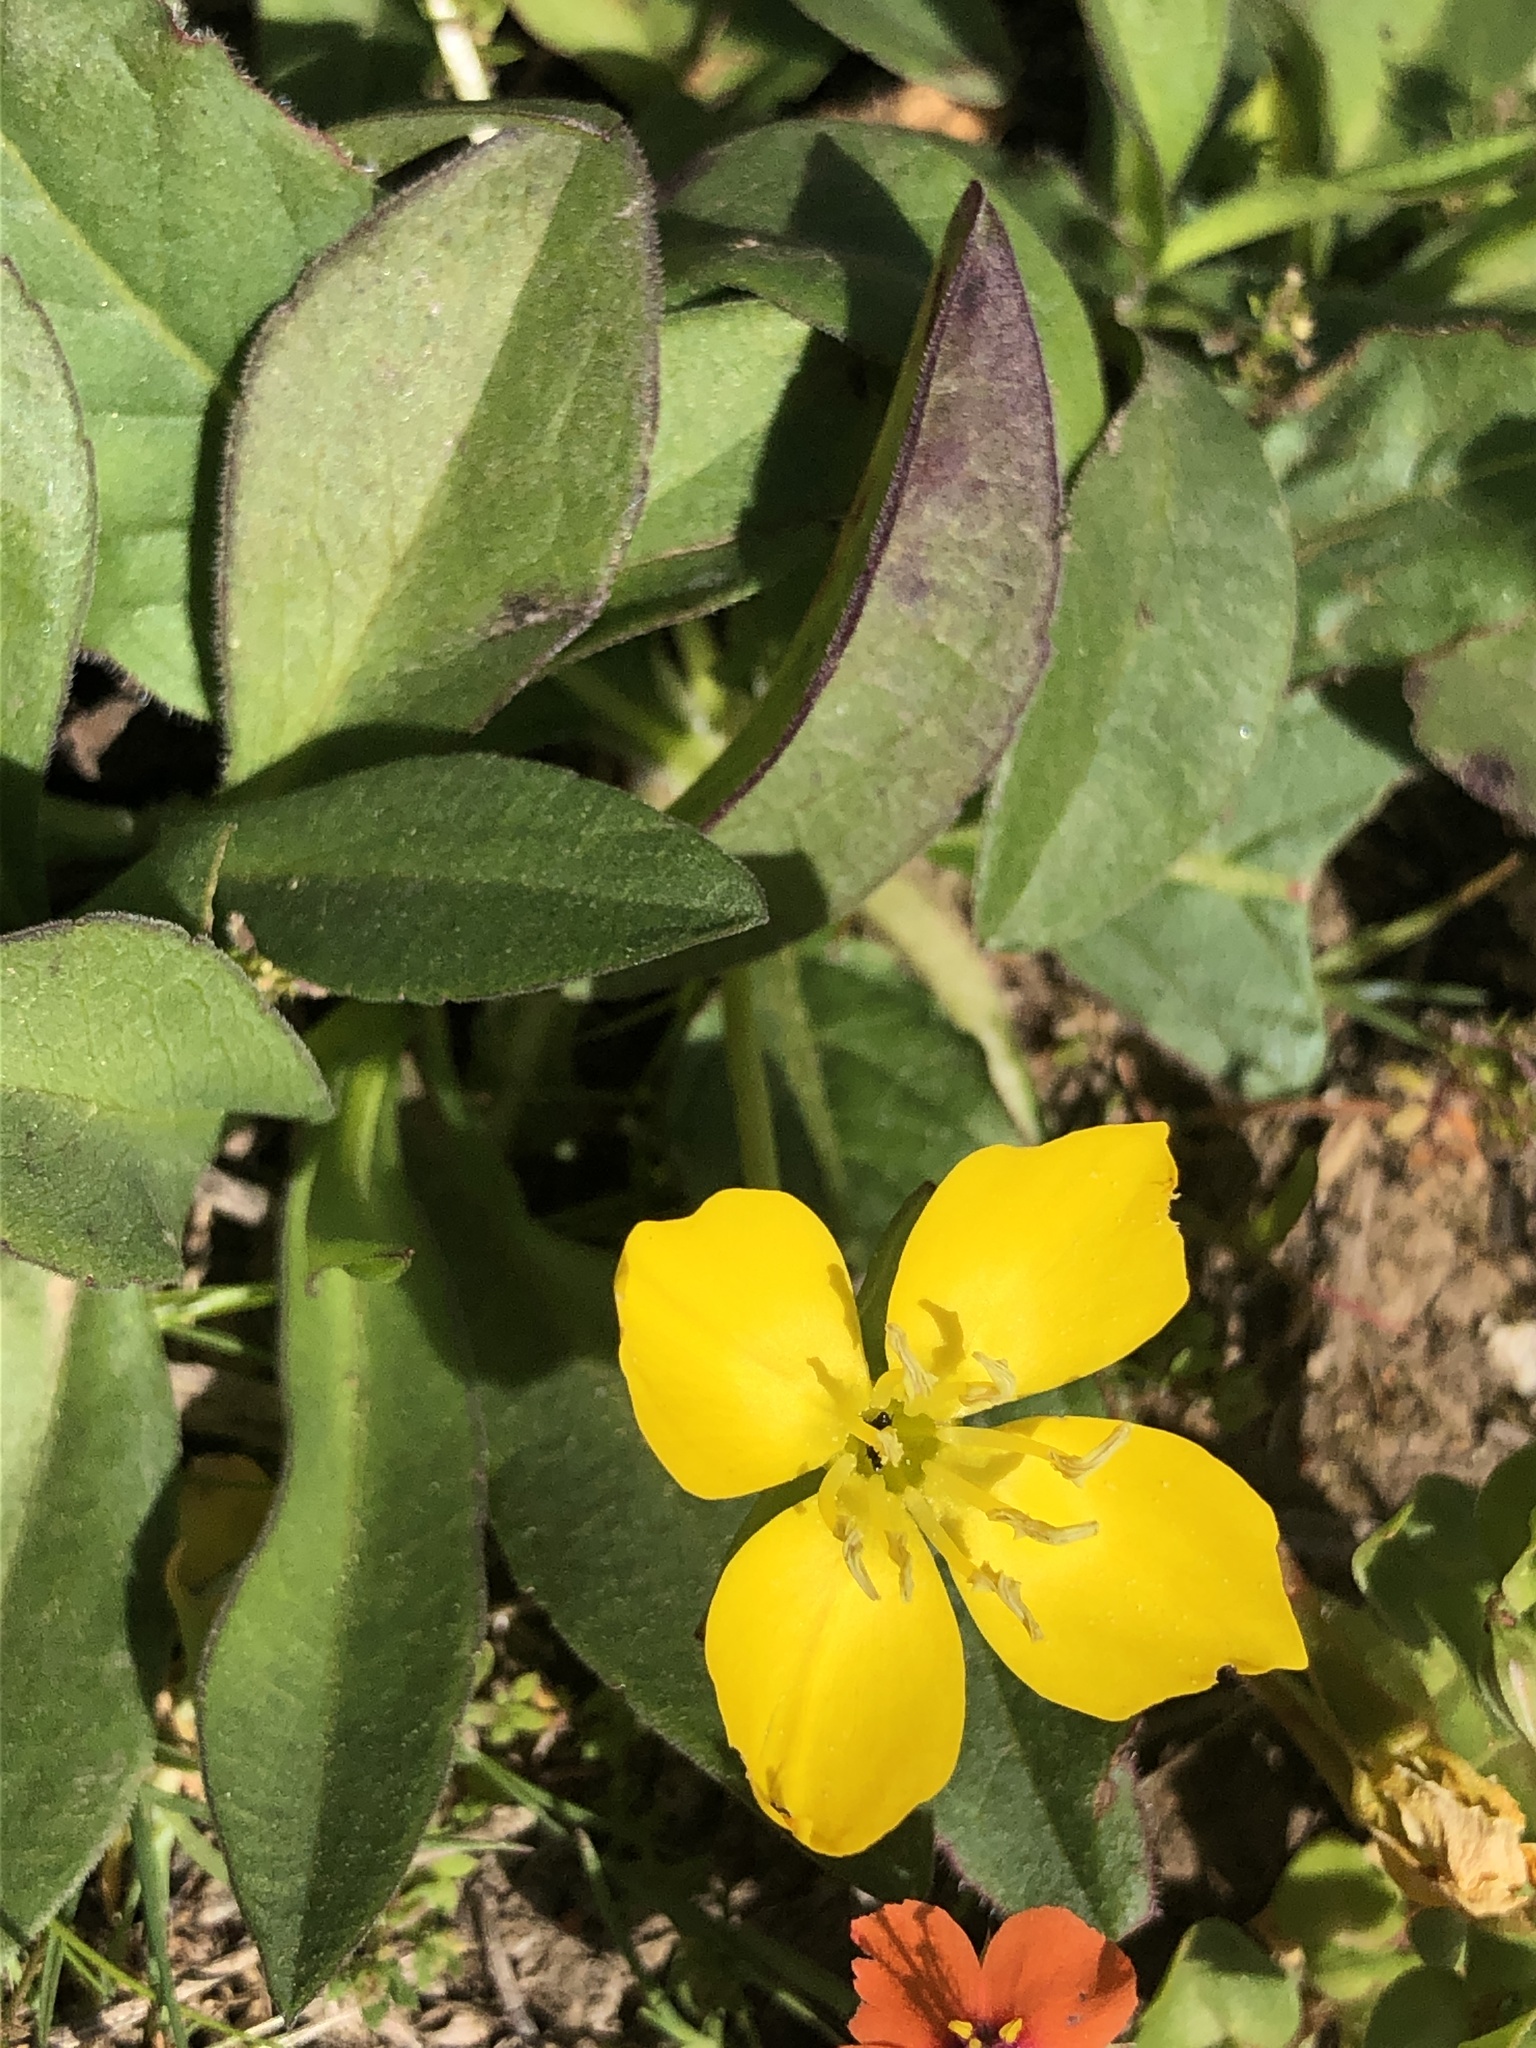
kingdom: Plantae
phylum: Tracheophyta
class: Magnoliopsida
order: Myrtales
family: Onagraceae
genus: Taraxia
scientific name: Taraxia ovata
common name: Goldeneggs
